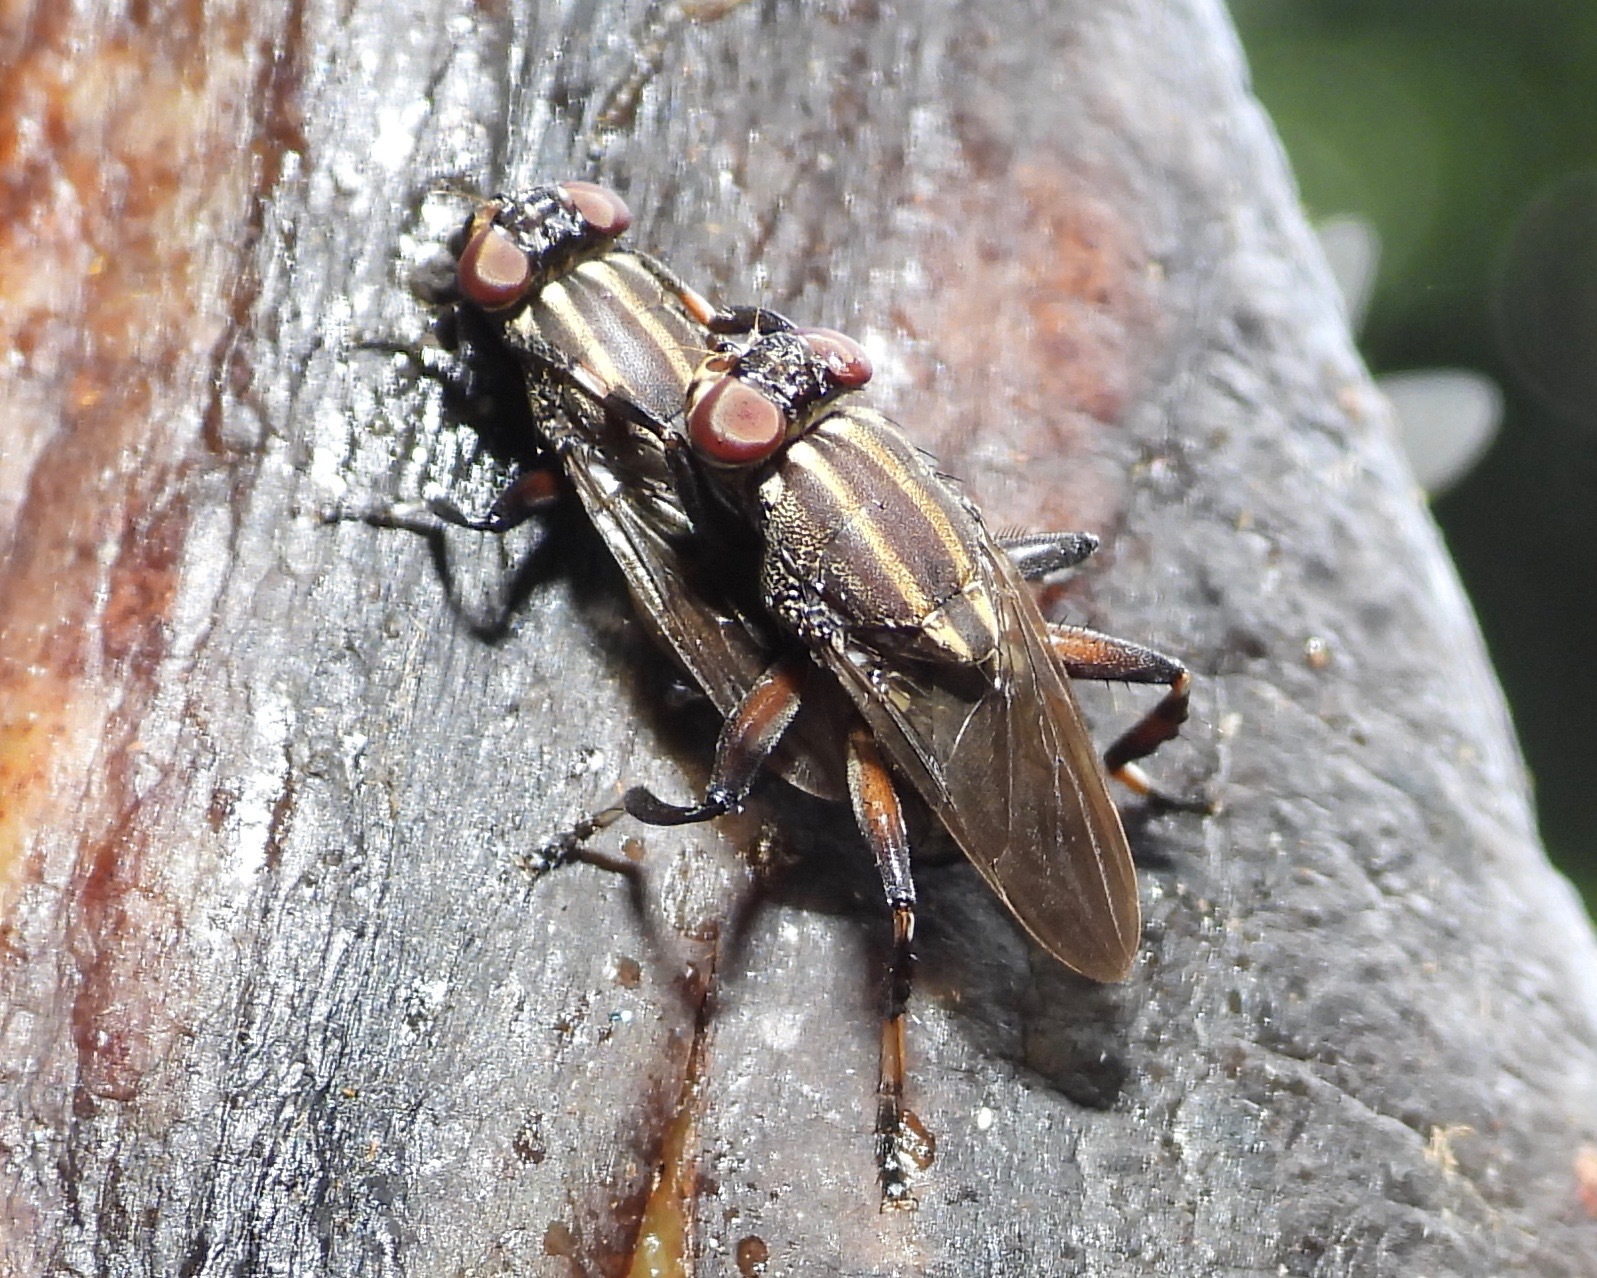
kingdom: Animalia
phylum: Arthropoda
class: Insecta
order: Diptera
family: Ropalomeridae
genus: Willistoniella
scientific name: Willistoniella
